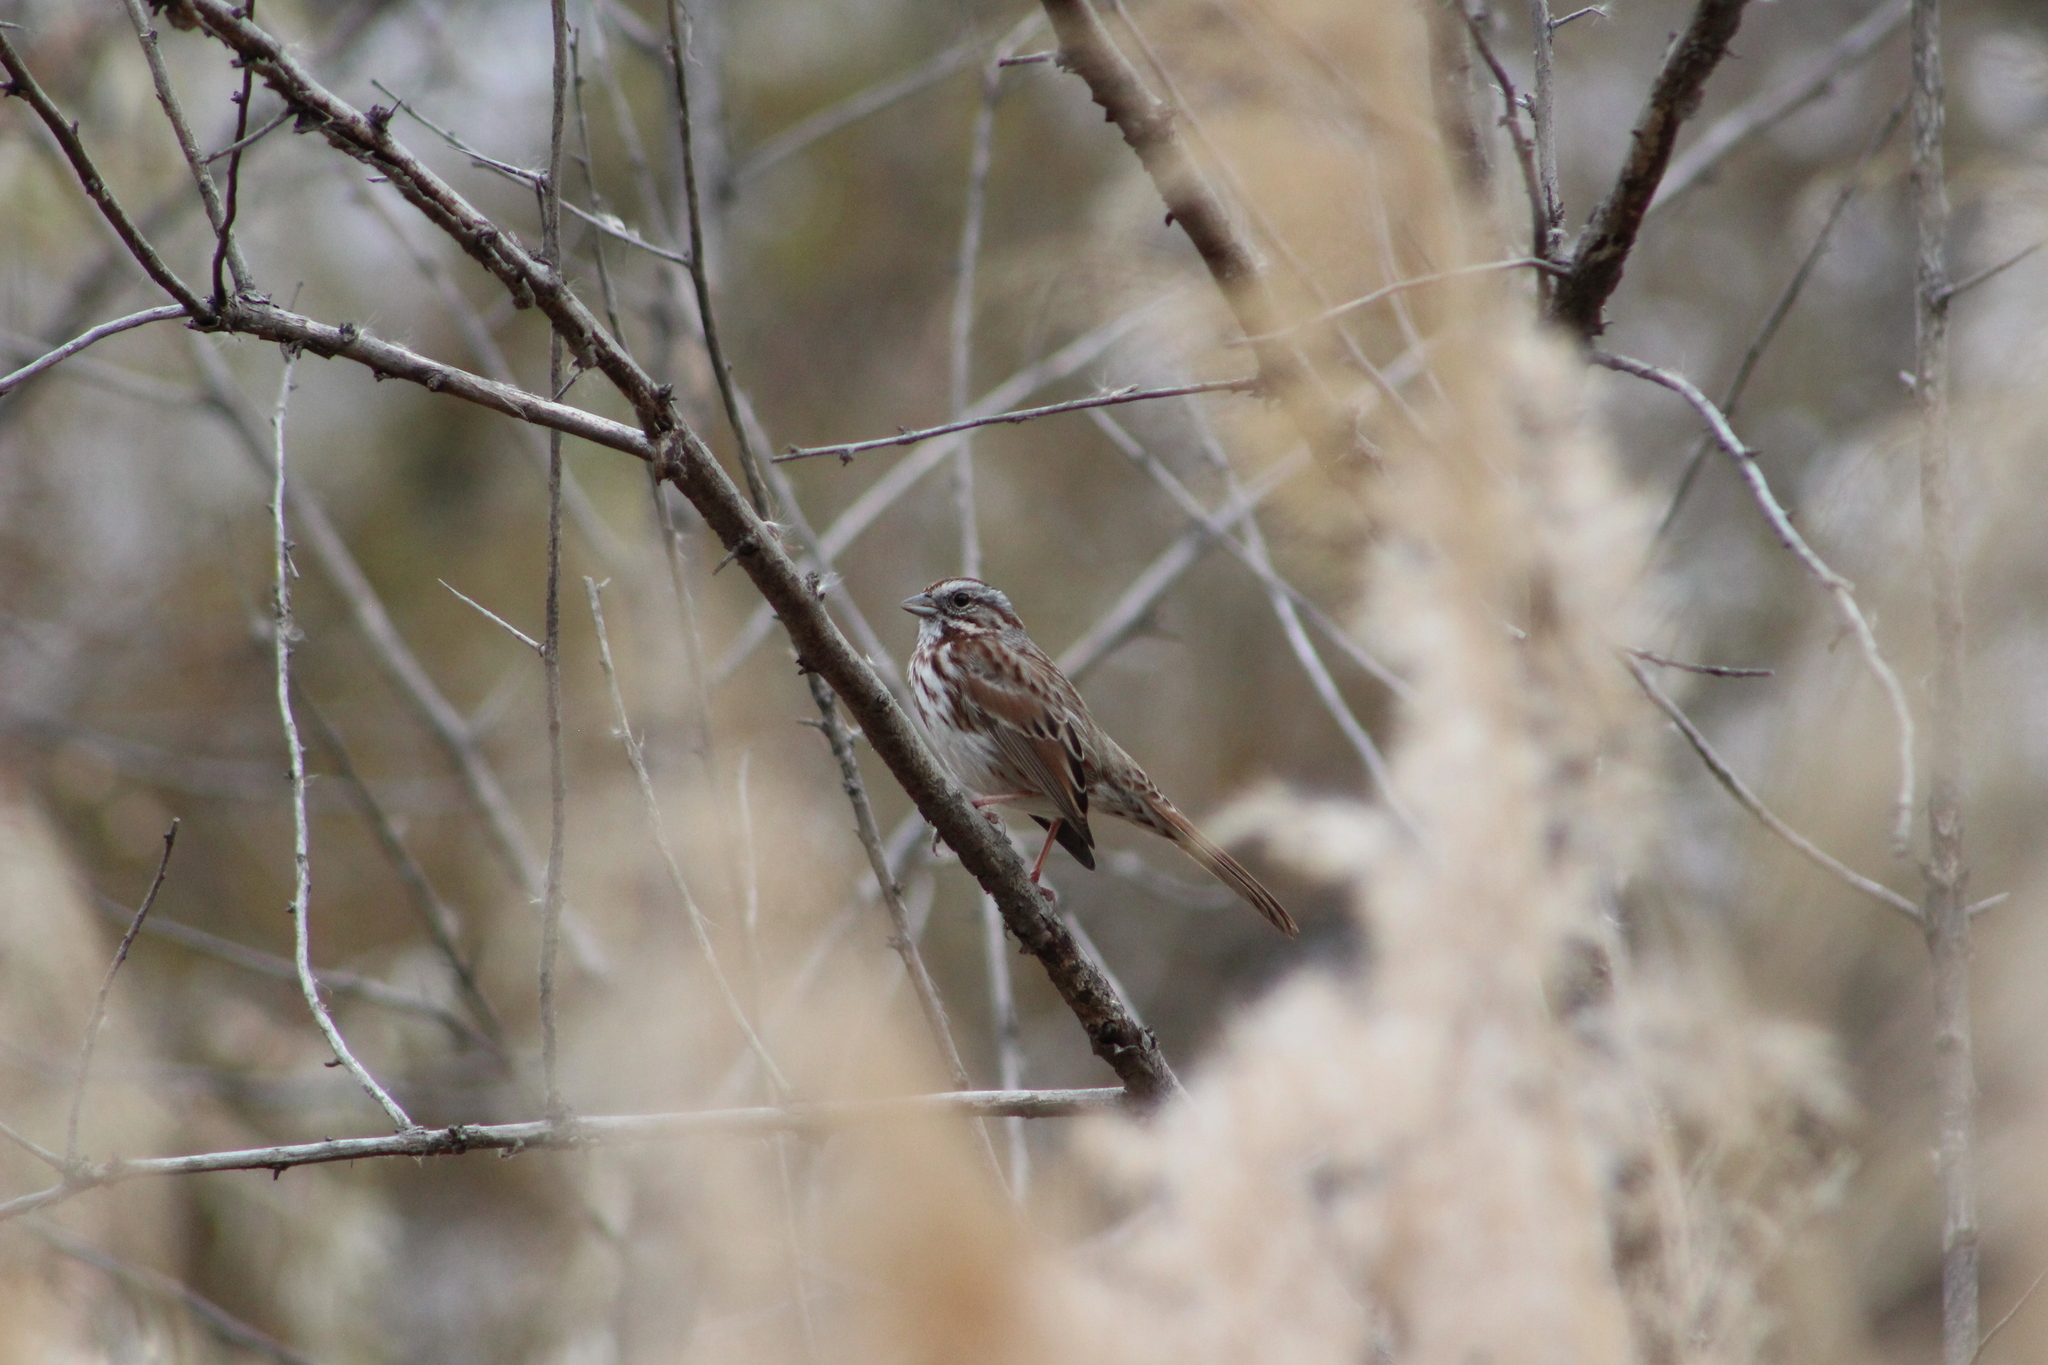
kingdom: Animalia
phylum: Chordata
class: Aves
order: Passeriformes
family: Passerellidae
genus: Melospiza
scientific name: Melospiza melodia
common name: Song sparrow
